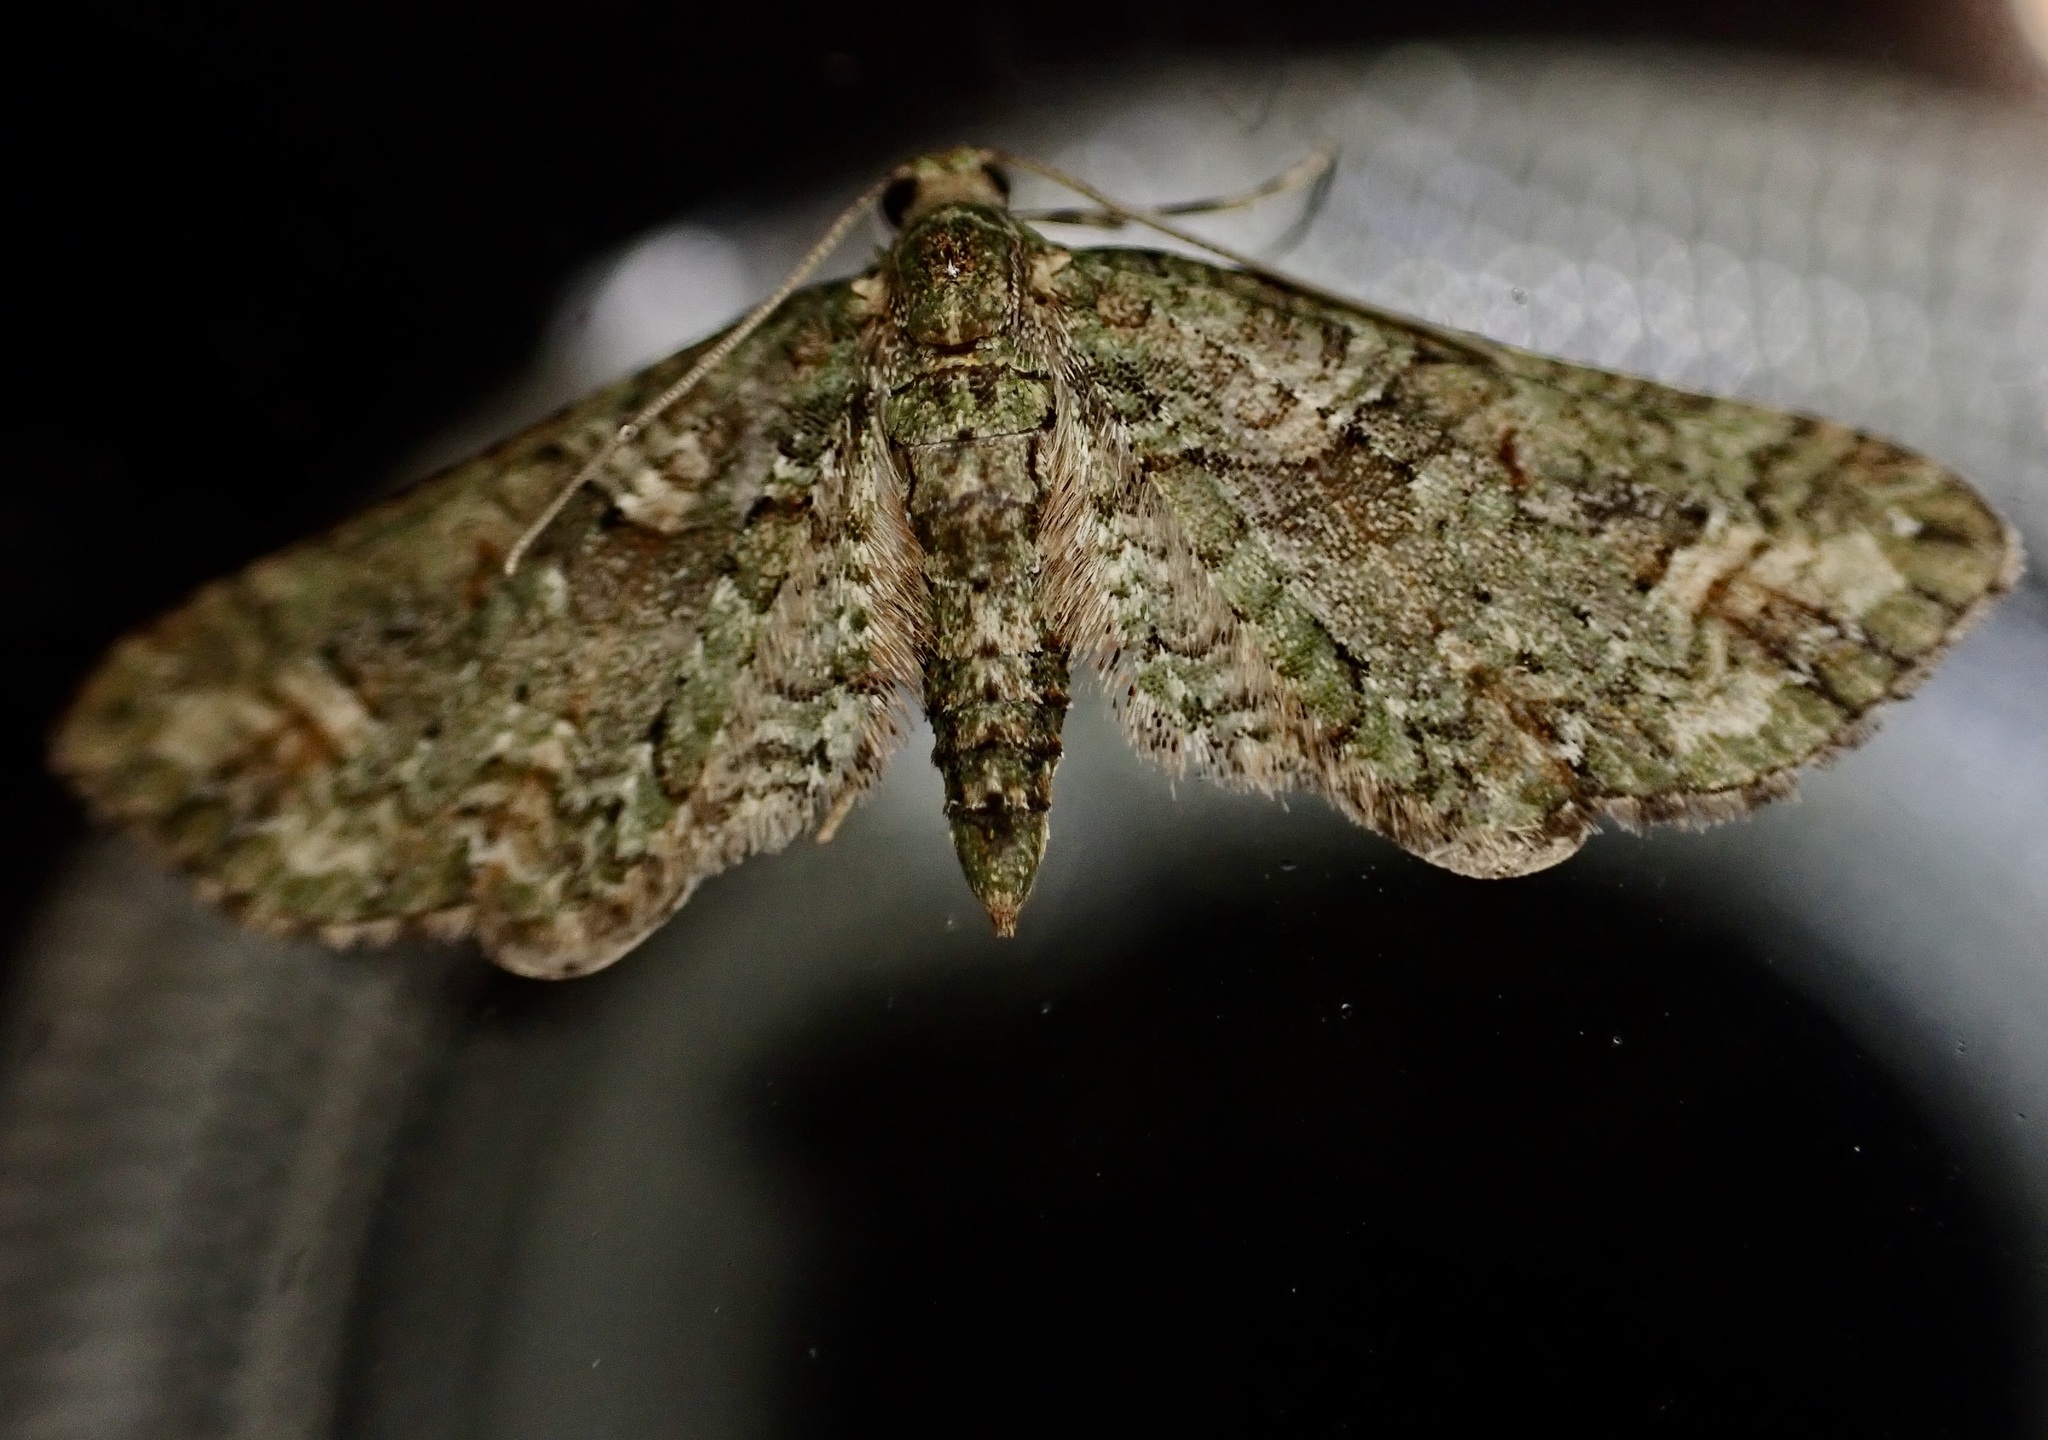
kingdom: Animalia
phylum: Arthropoda
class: Insecta
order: Lepidoptera
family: Geometridae
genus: Idaea
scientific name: Idaea mutanda
